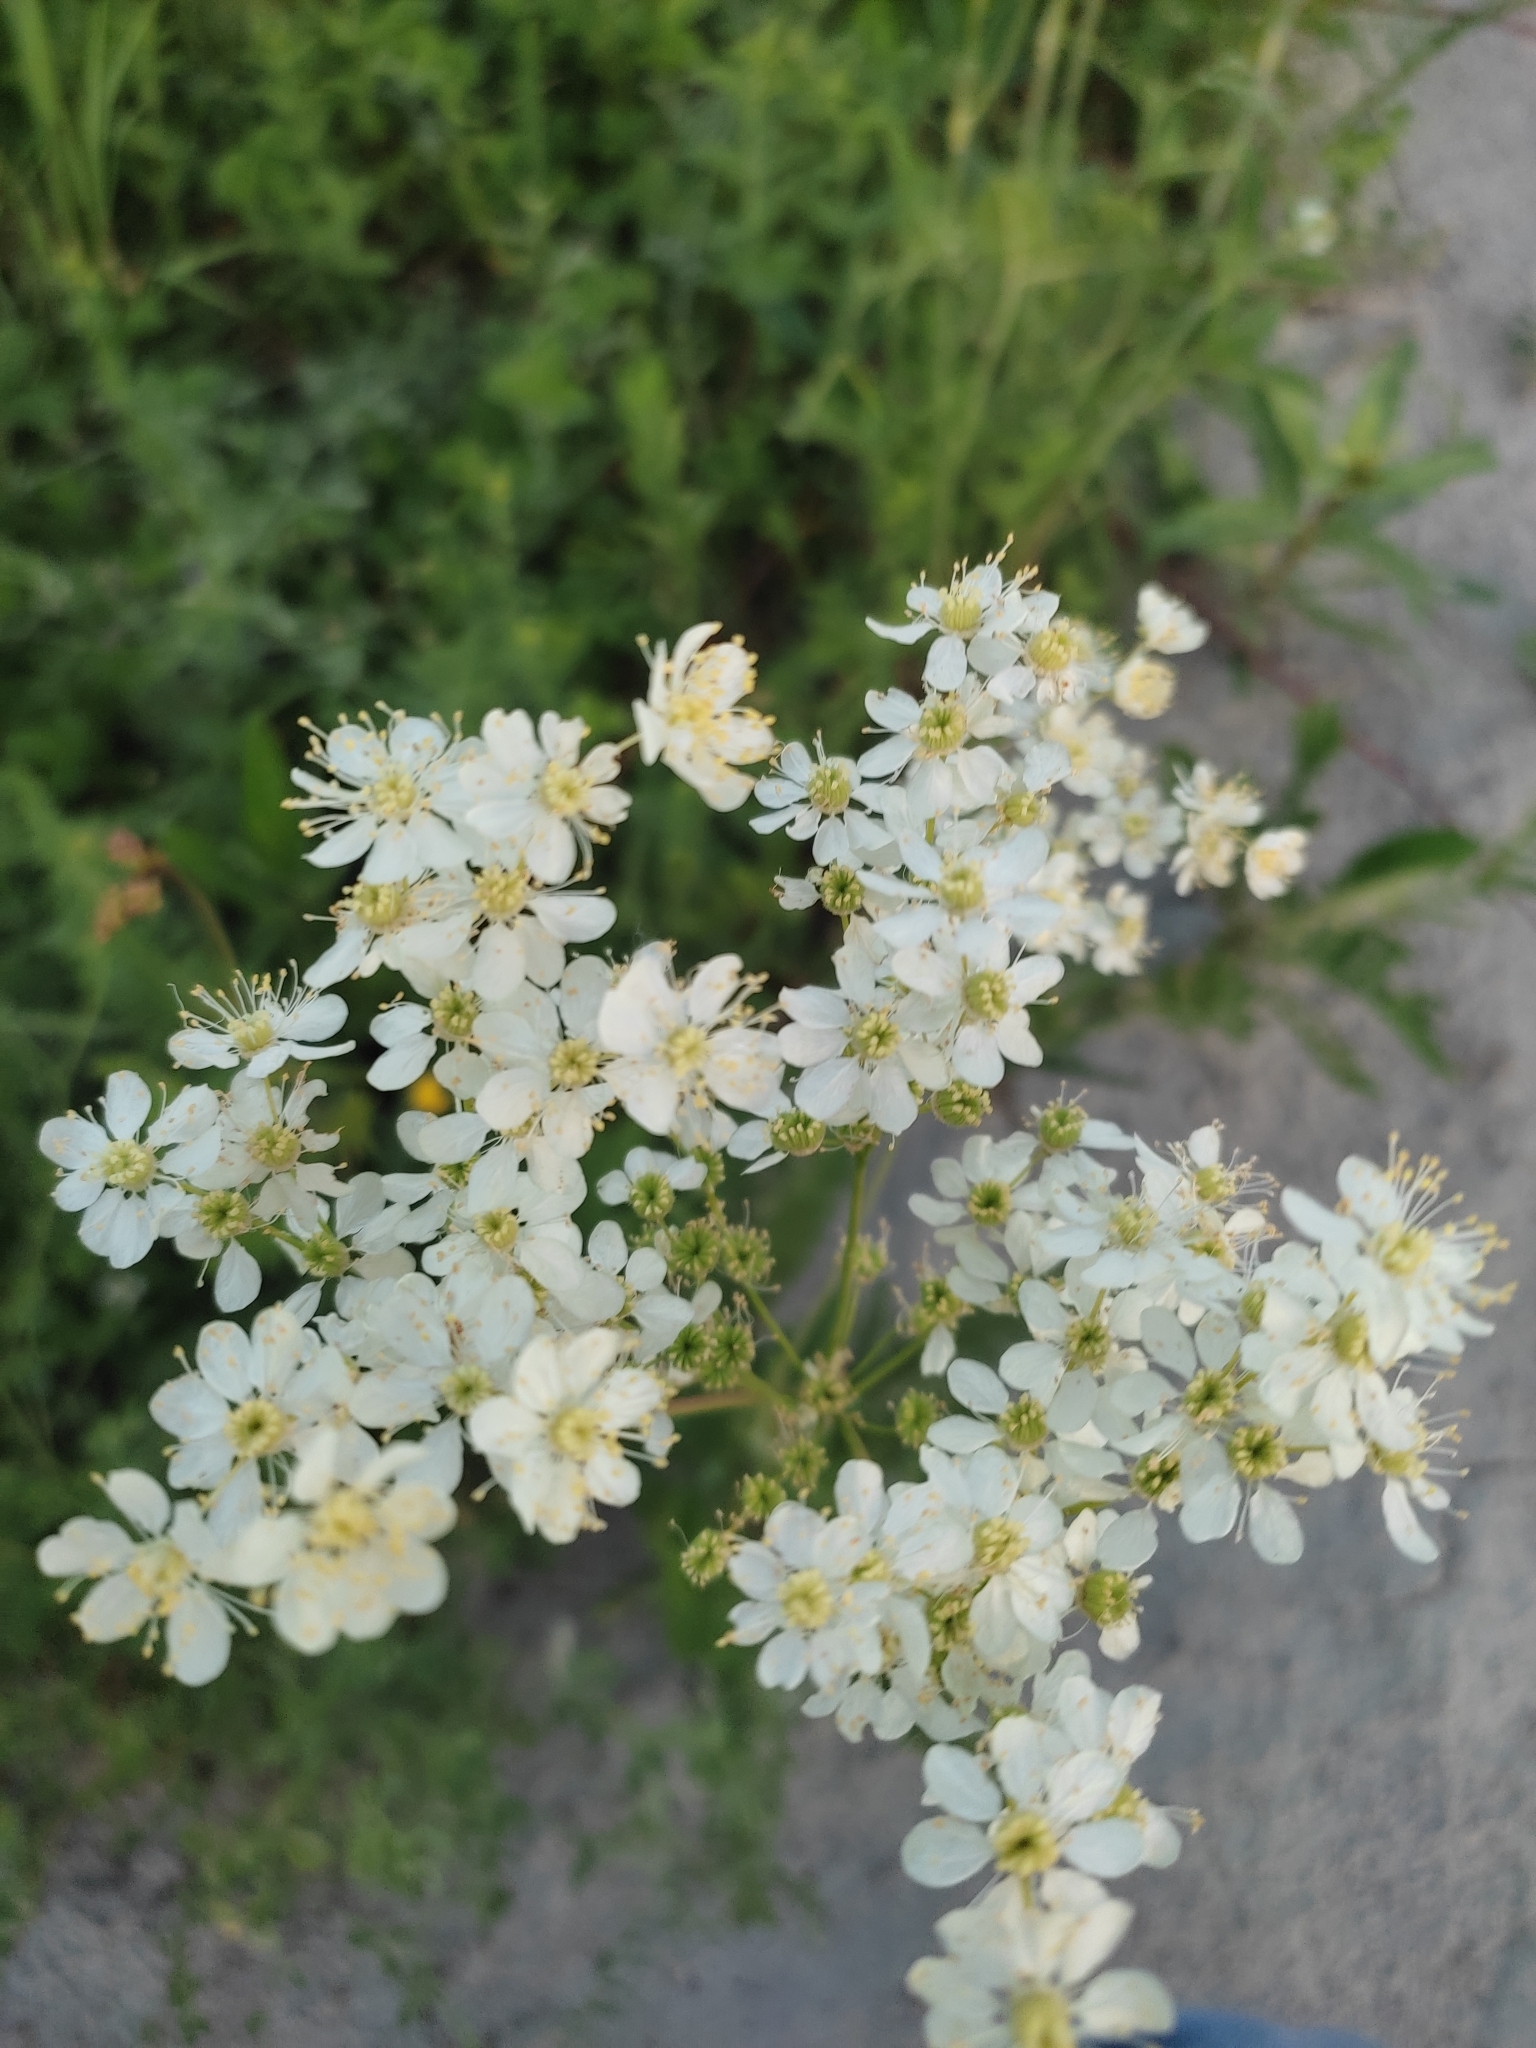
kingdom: Plantae
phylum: Tracheophyta
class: Magnoliopsida
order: Rosales
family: Rosaceae
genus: Filipendula
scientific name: Filipendula vulgaris
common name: Dropwort
